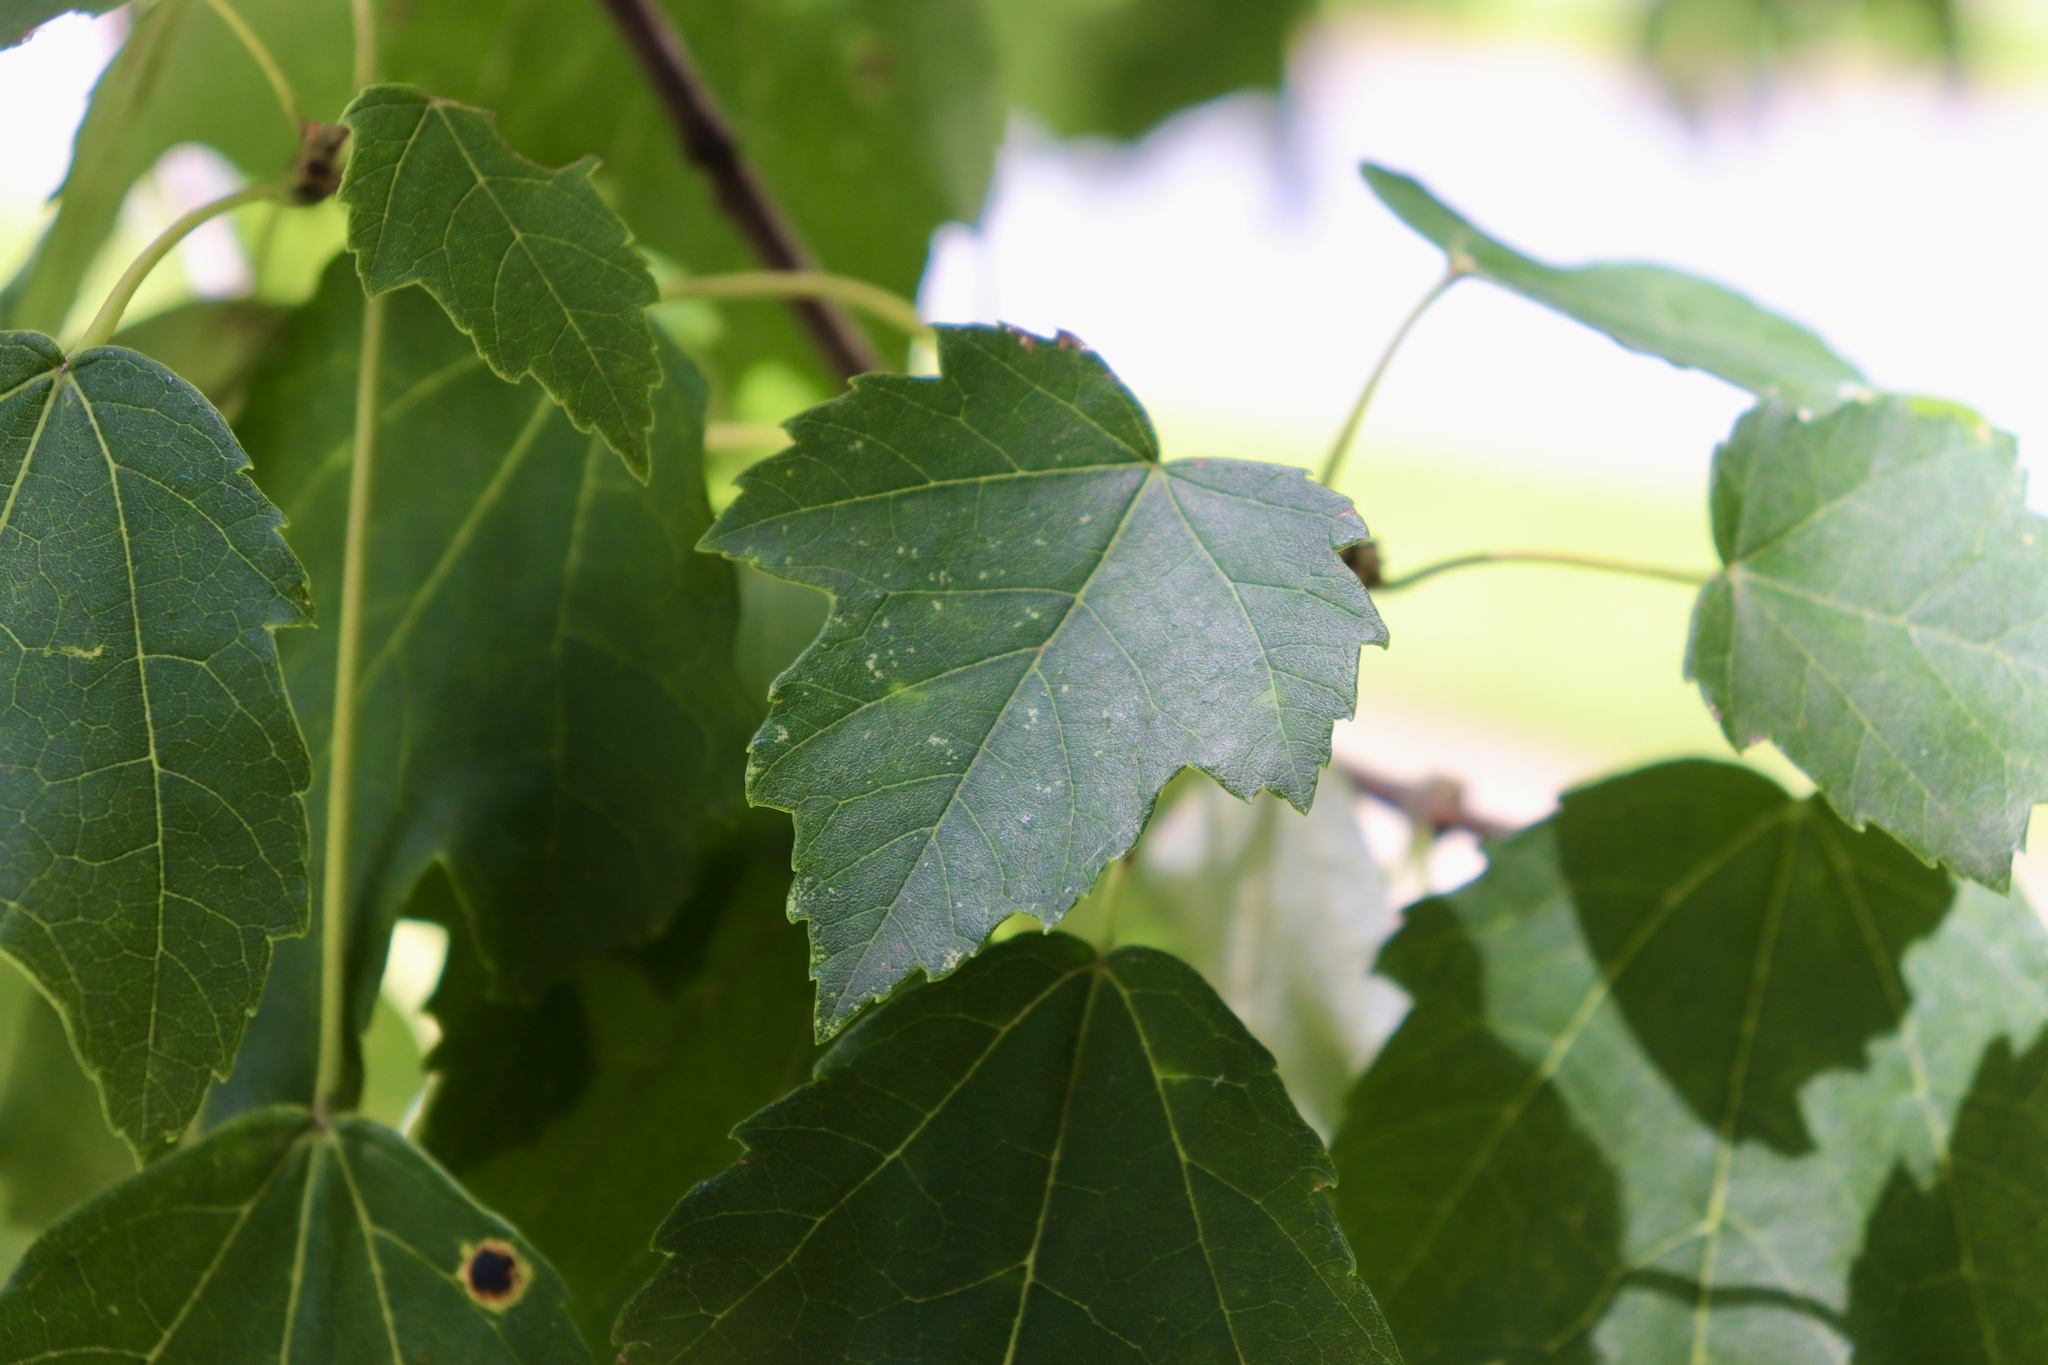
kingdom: Plantae
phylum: Tracheophyta
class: Magnoliopsida
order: Sapindales
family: Sapindaceae
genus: Acer
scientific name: Acer rubrum
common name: Red maple
